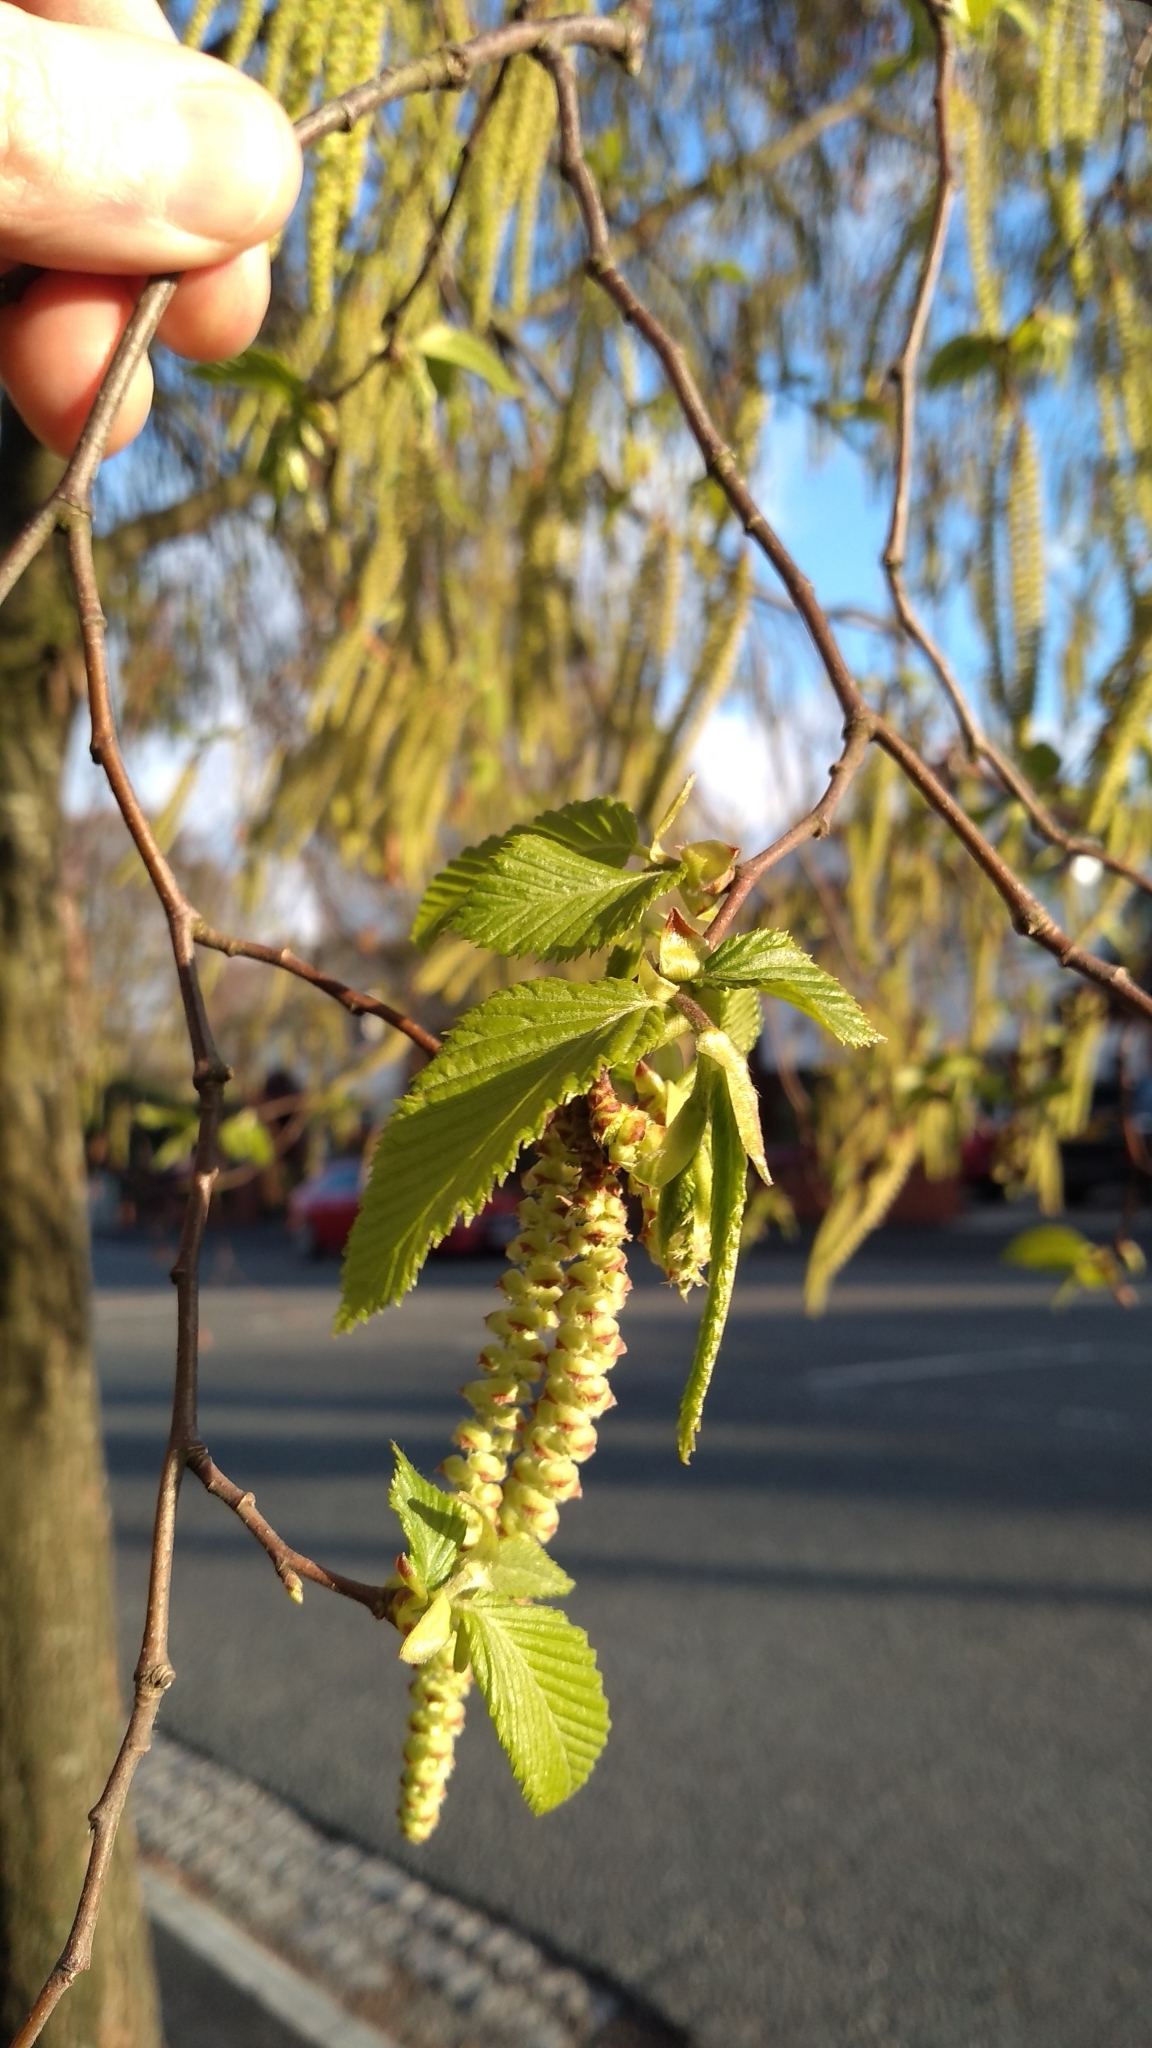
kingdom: Plantae
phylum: Tracheophyta
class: Magnoliopsida
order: Fagales
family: Betulaceae
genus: Carpinus
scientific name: Carpinus betulus
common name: Hornbeam
